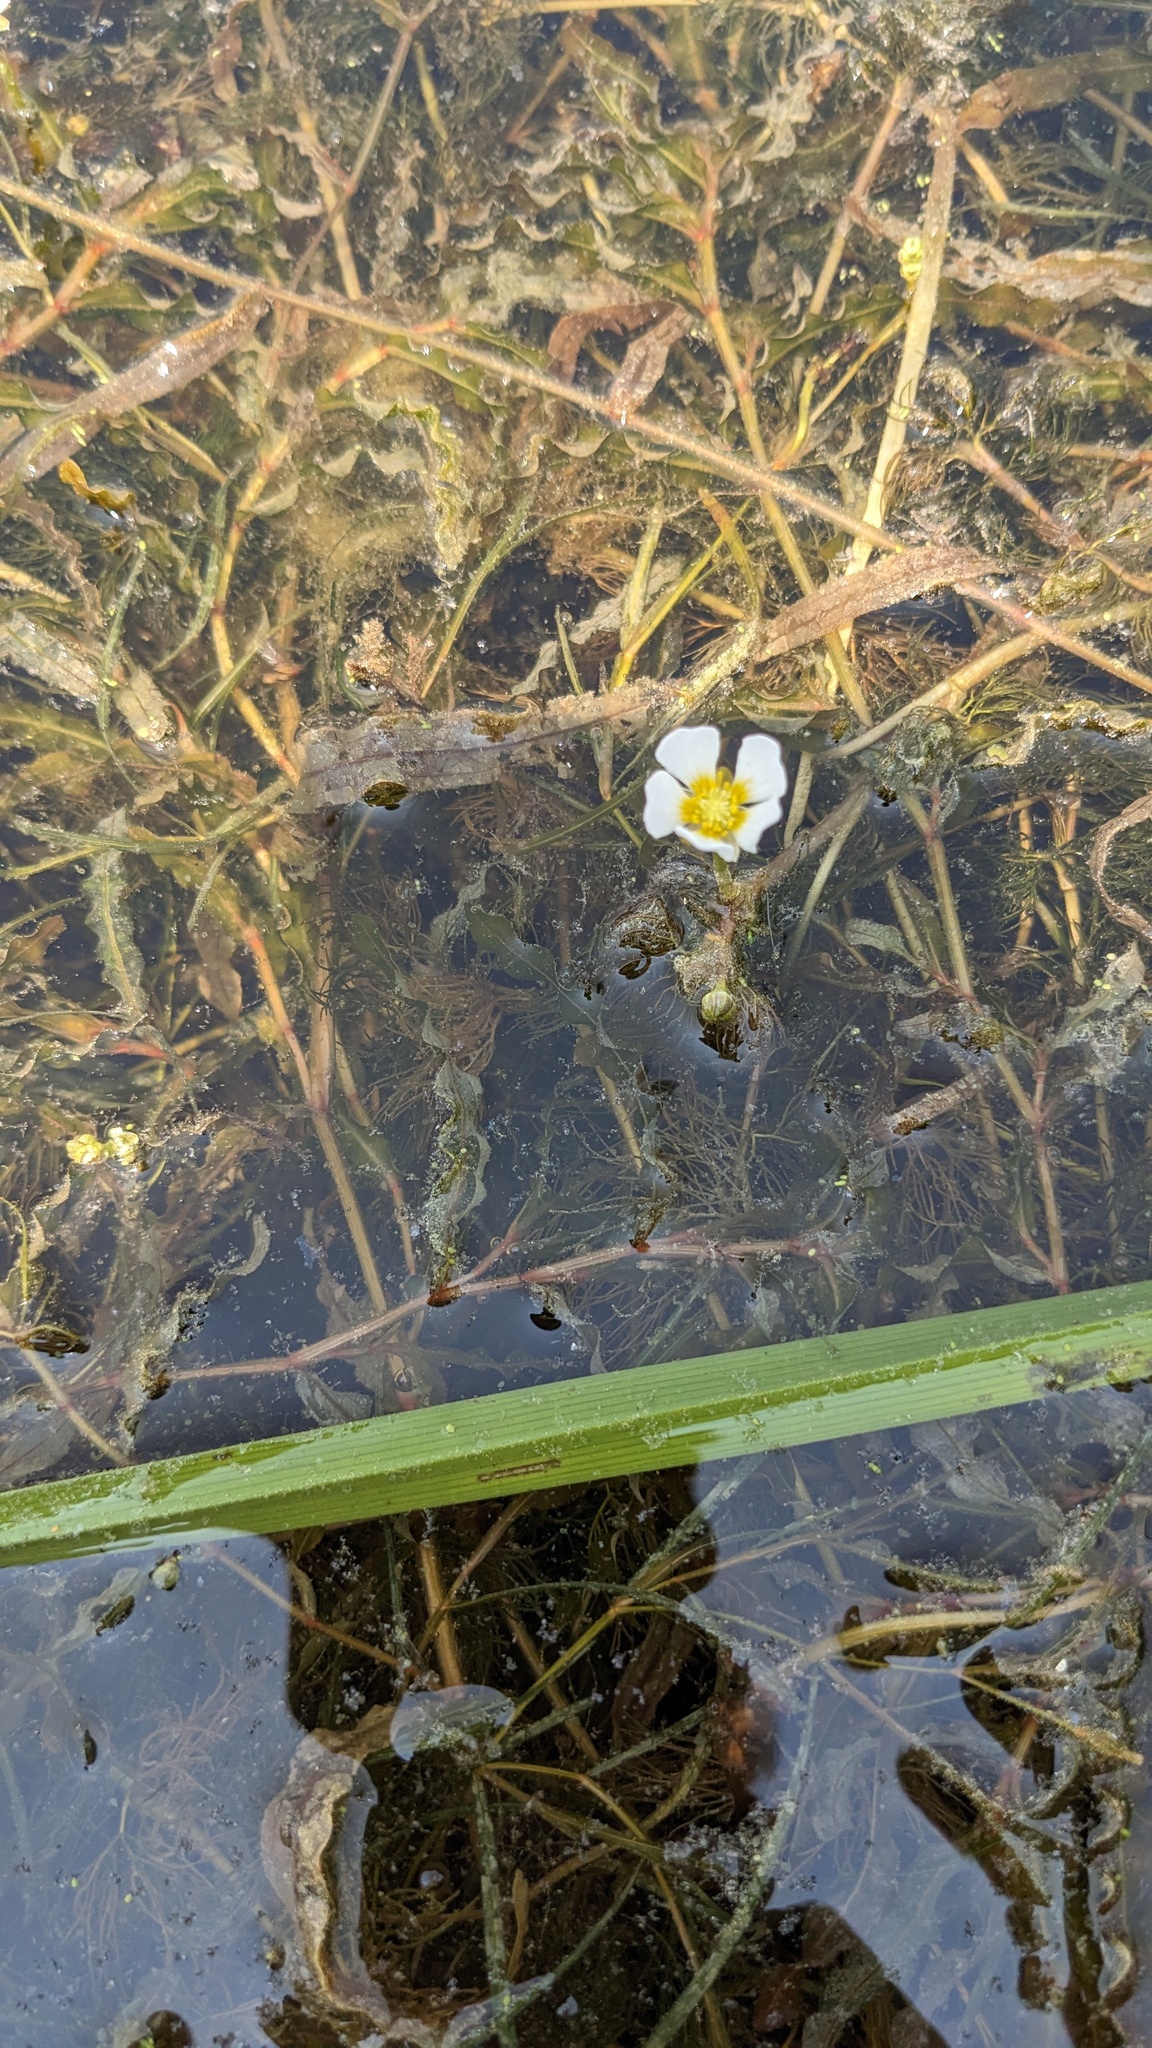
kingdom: Plantae
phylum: Tracheophyta
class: Magnoliopsida
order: Ranunculales
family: Ranunculaceae
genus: Ranunculus
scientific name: Ranunculus aquatilis
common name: Common water-crowfoot
